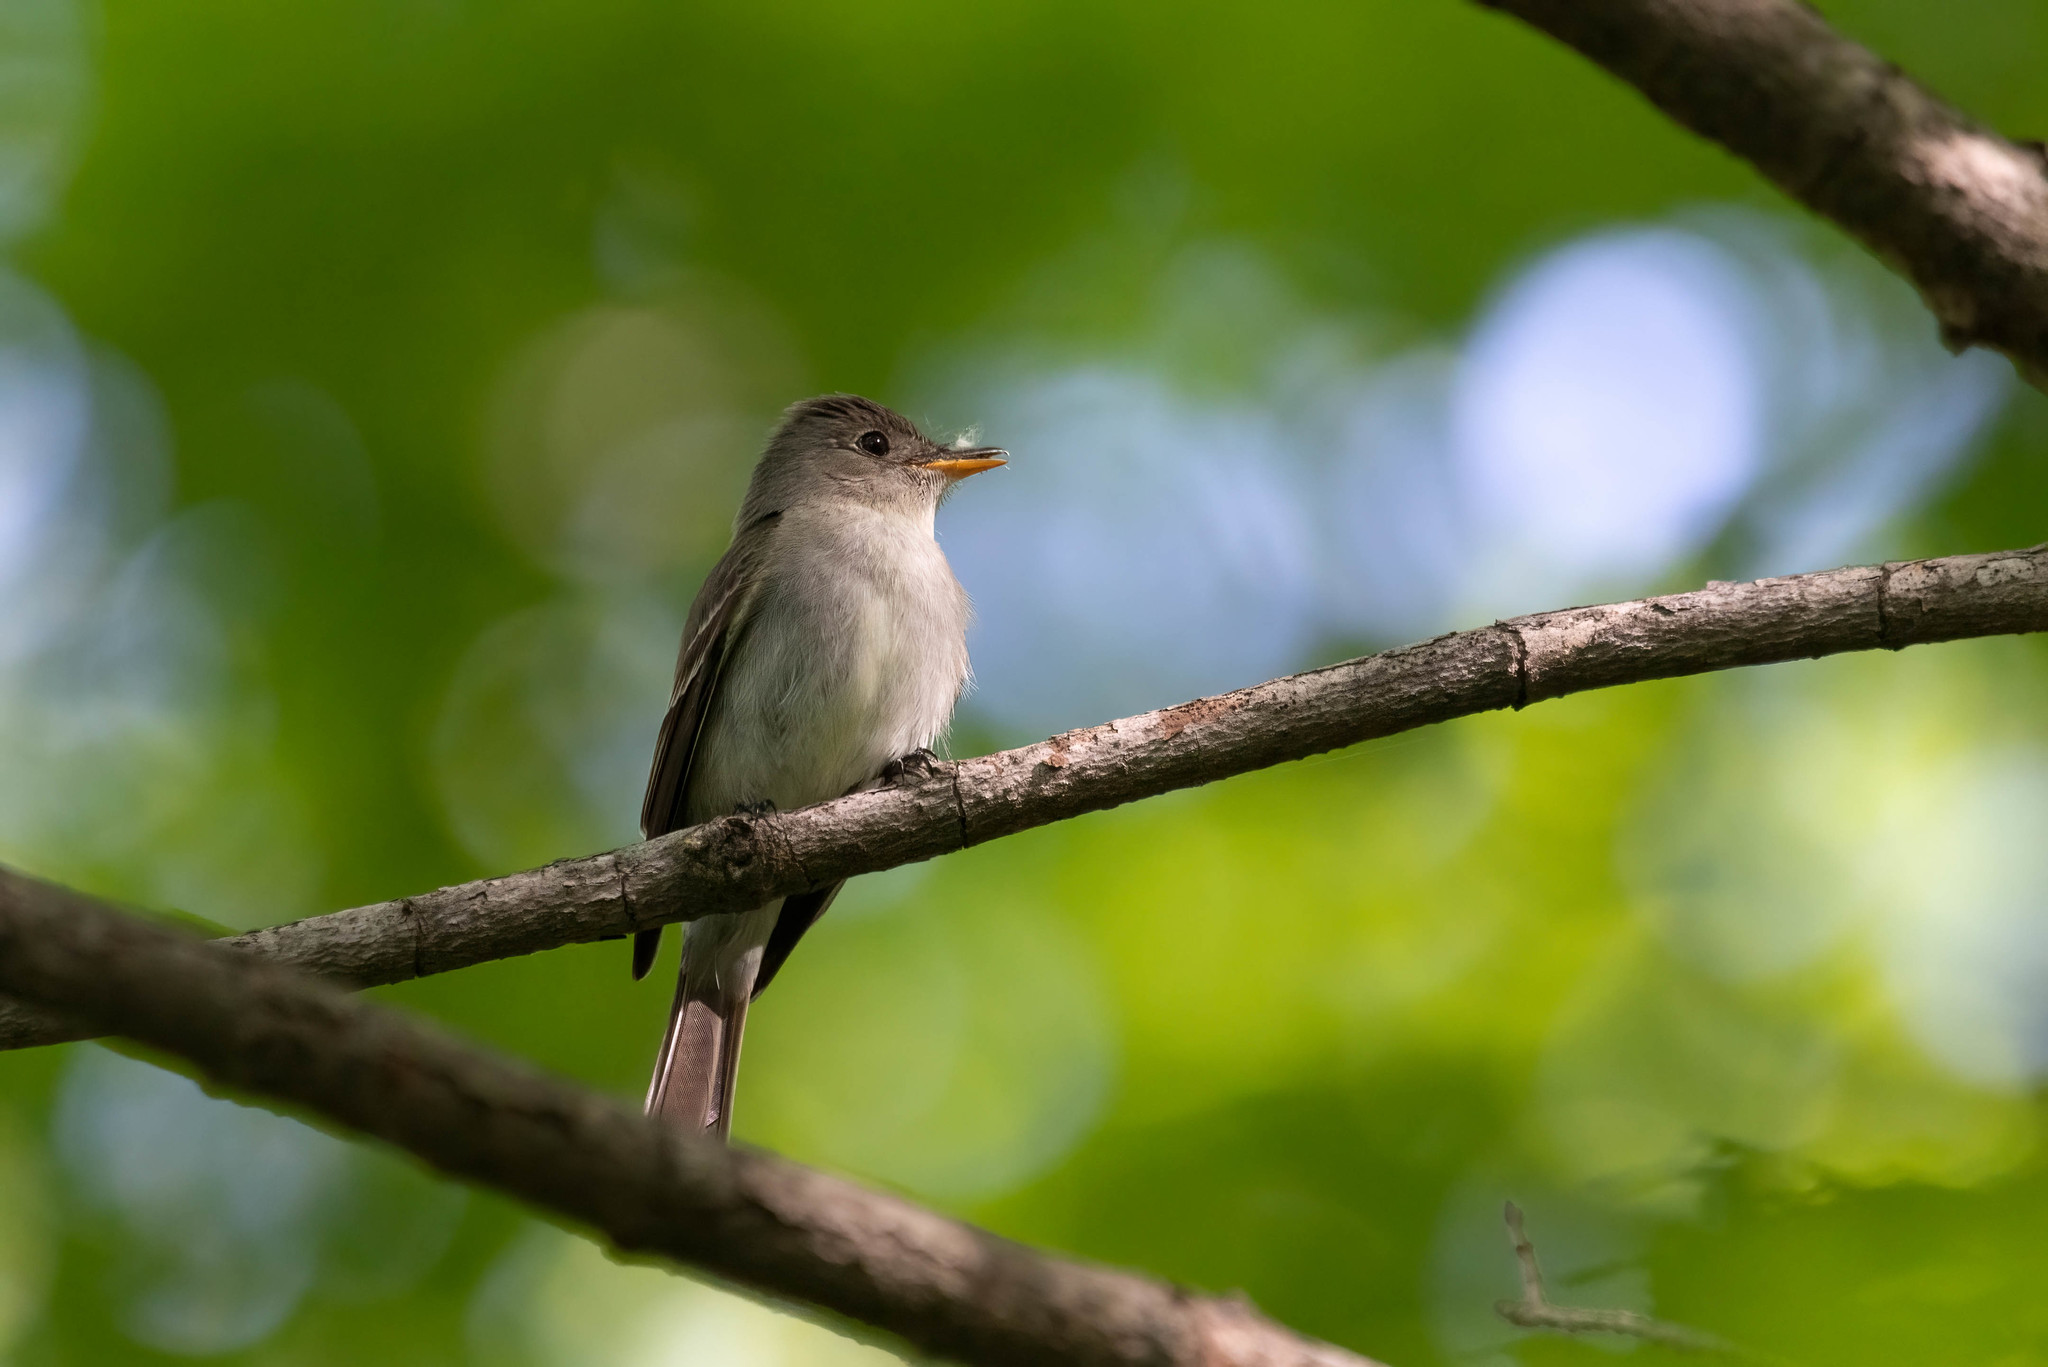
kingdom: Animalia
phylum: Chordata
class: Aves
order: Passeriformes
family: Tyrannidae
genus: Contopus
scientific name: Contopus virens
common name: Eastern wood-pewee
